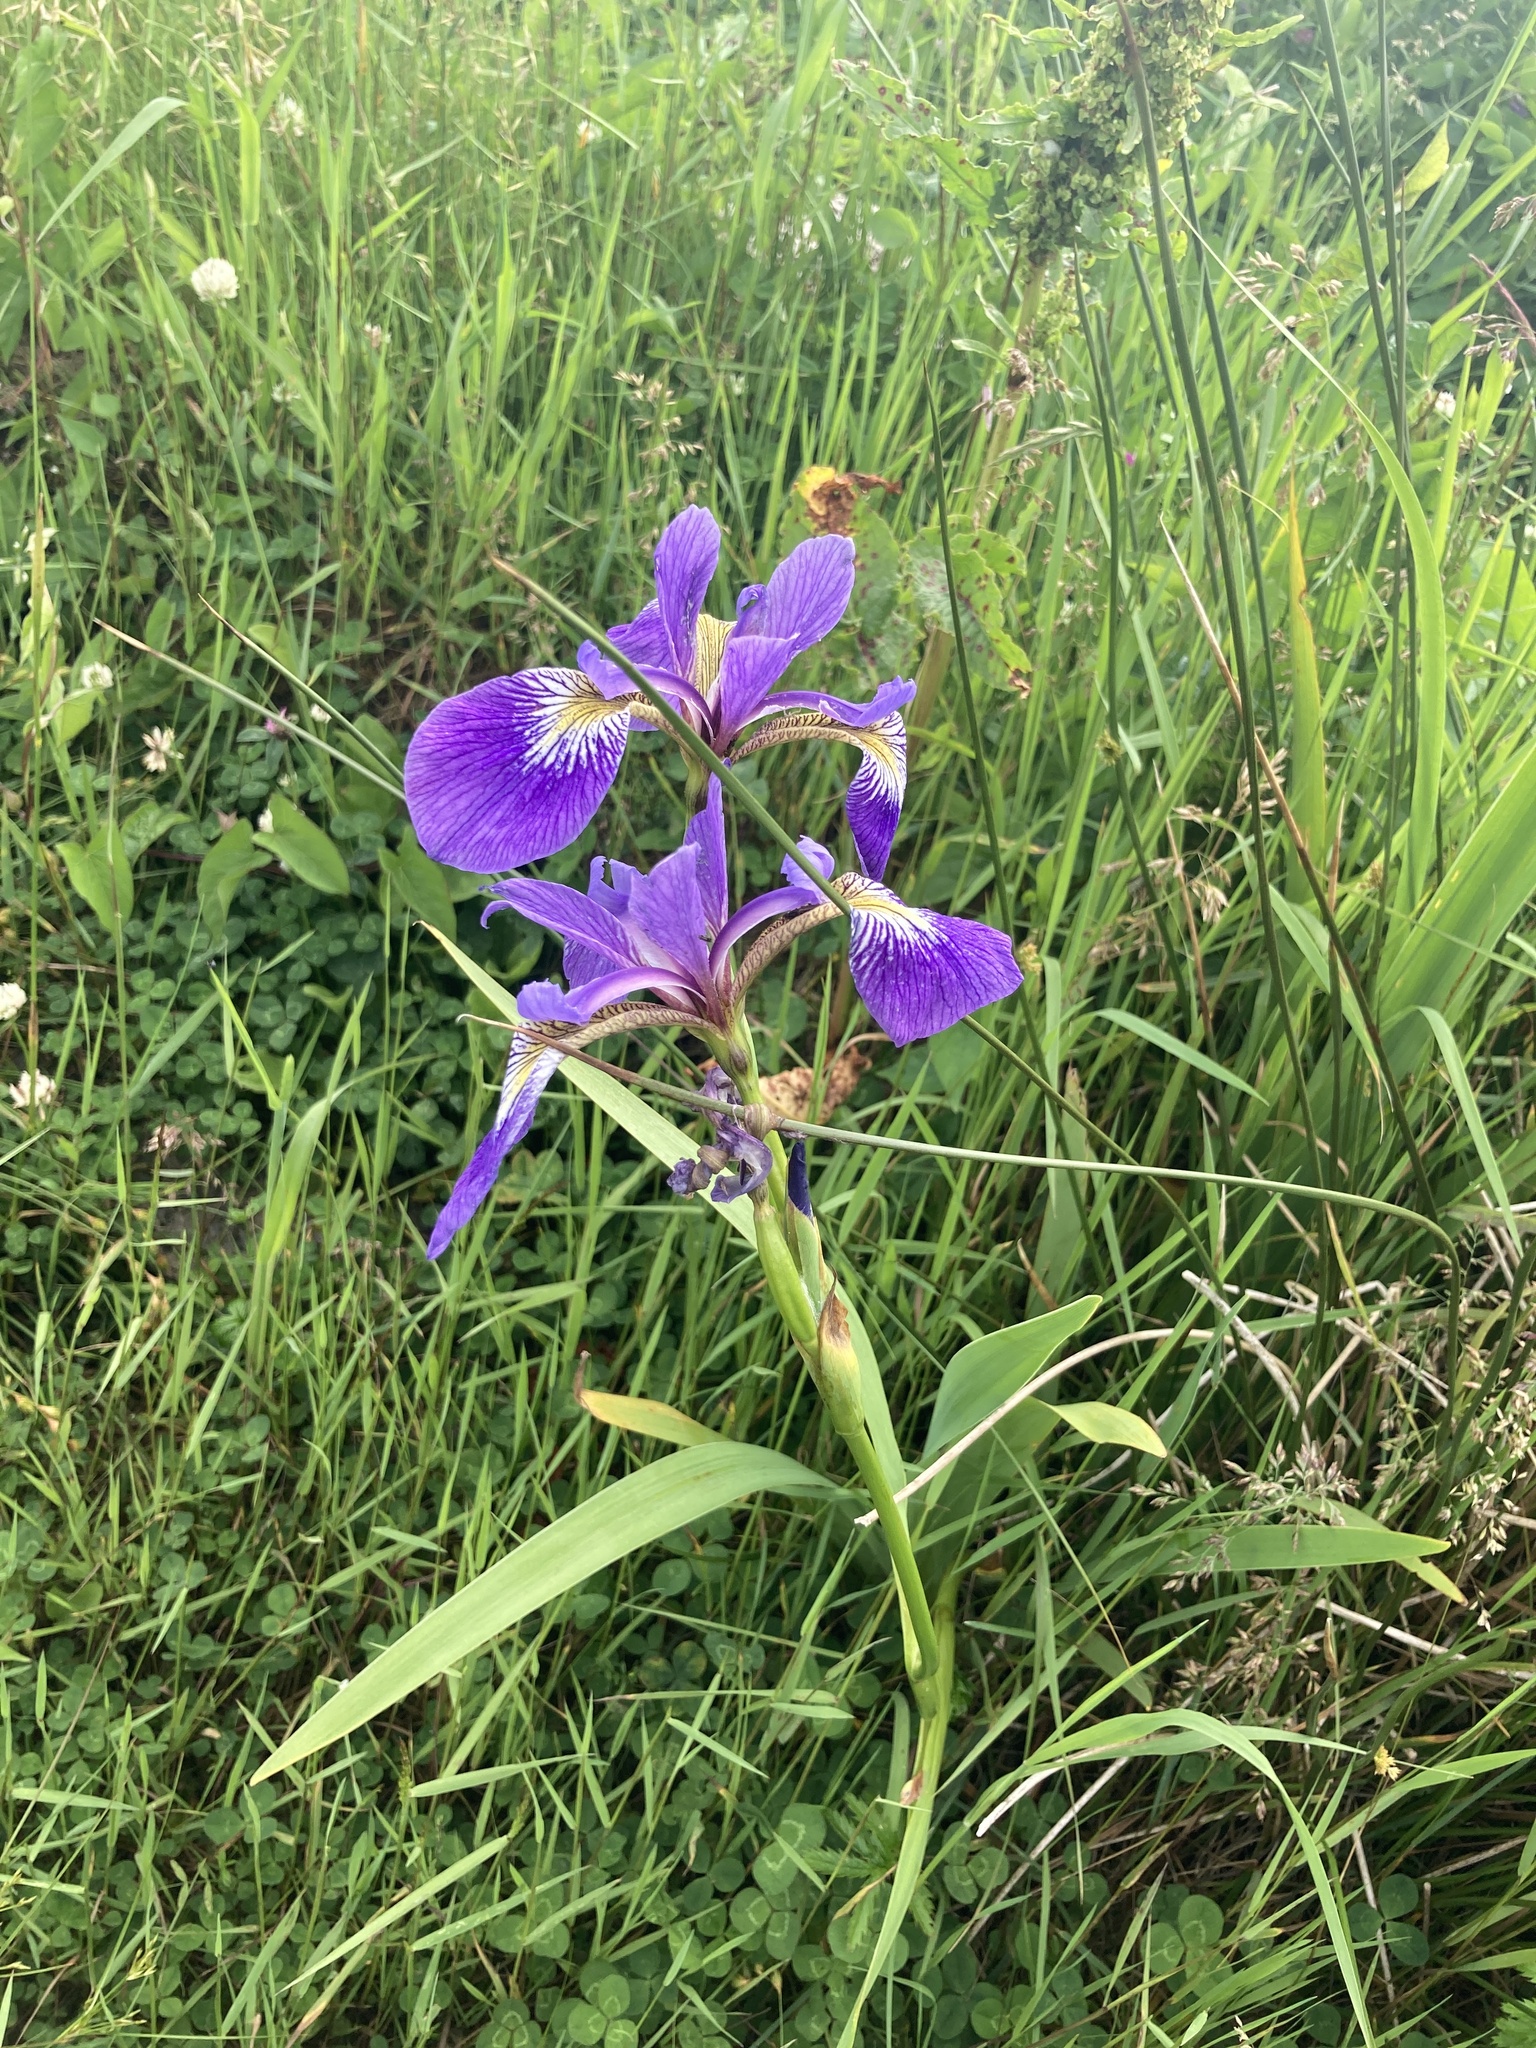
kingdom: Plantae
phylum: Tracheophyta
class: Liliopsida
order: Asparagales
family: Iridaceae
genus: Iris
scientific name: Iris versicolor
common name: Purple iris
